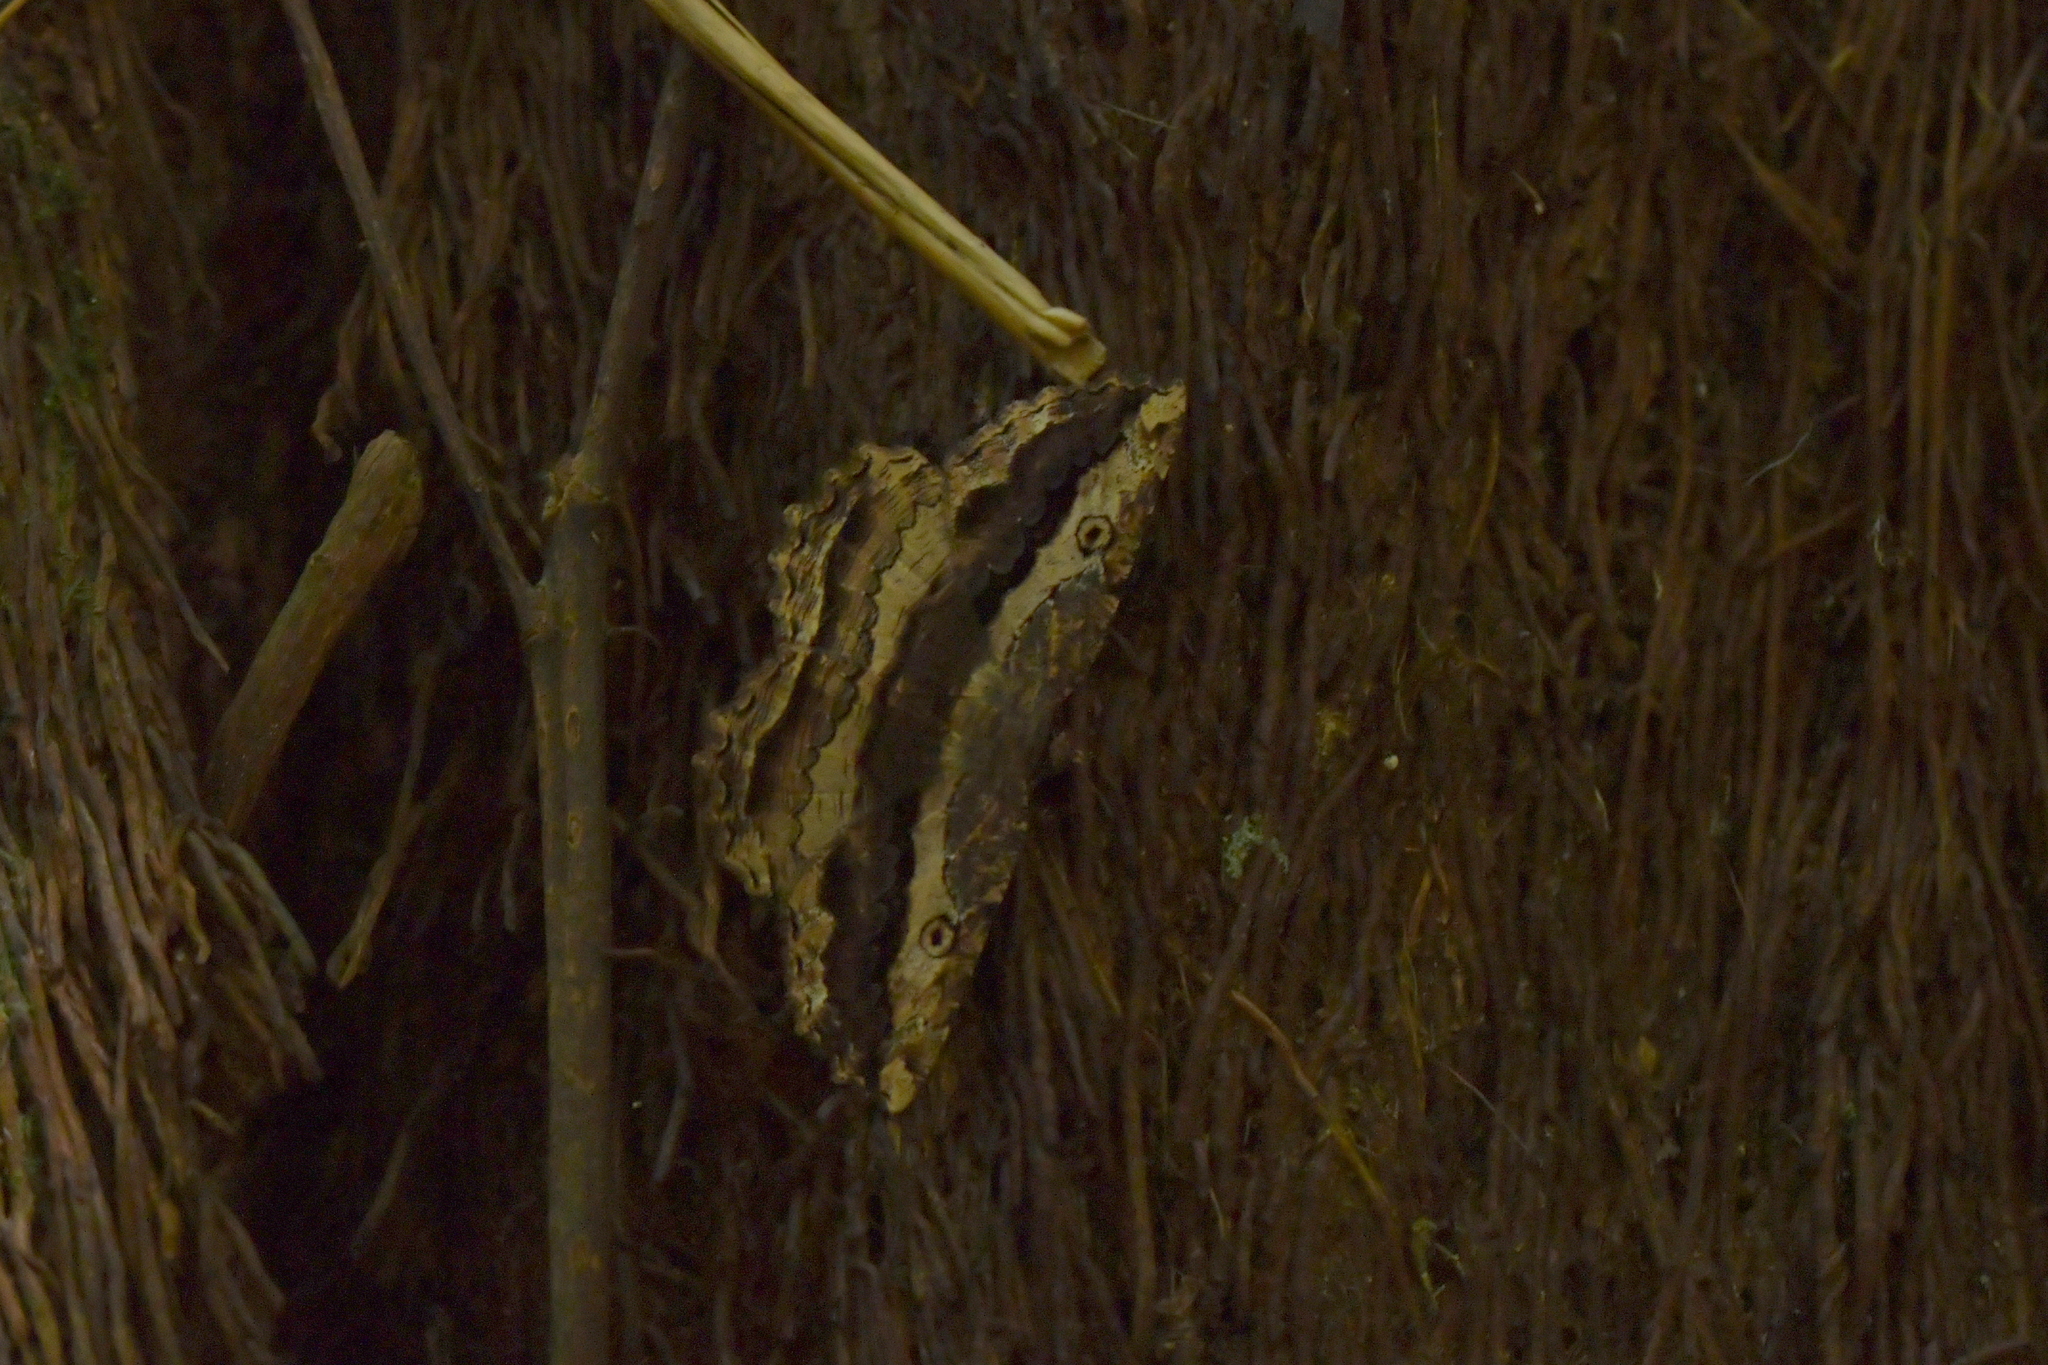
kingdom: Animalia
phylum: Arthropoda
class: Insecta
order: Lepidoptera
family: Geometridae
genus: Gellonia
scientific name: Gellonia pannularia
